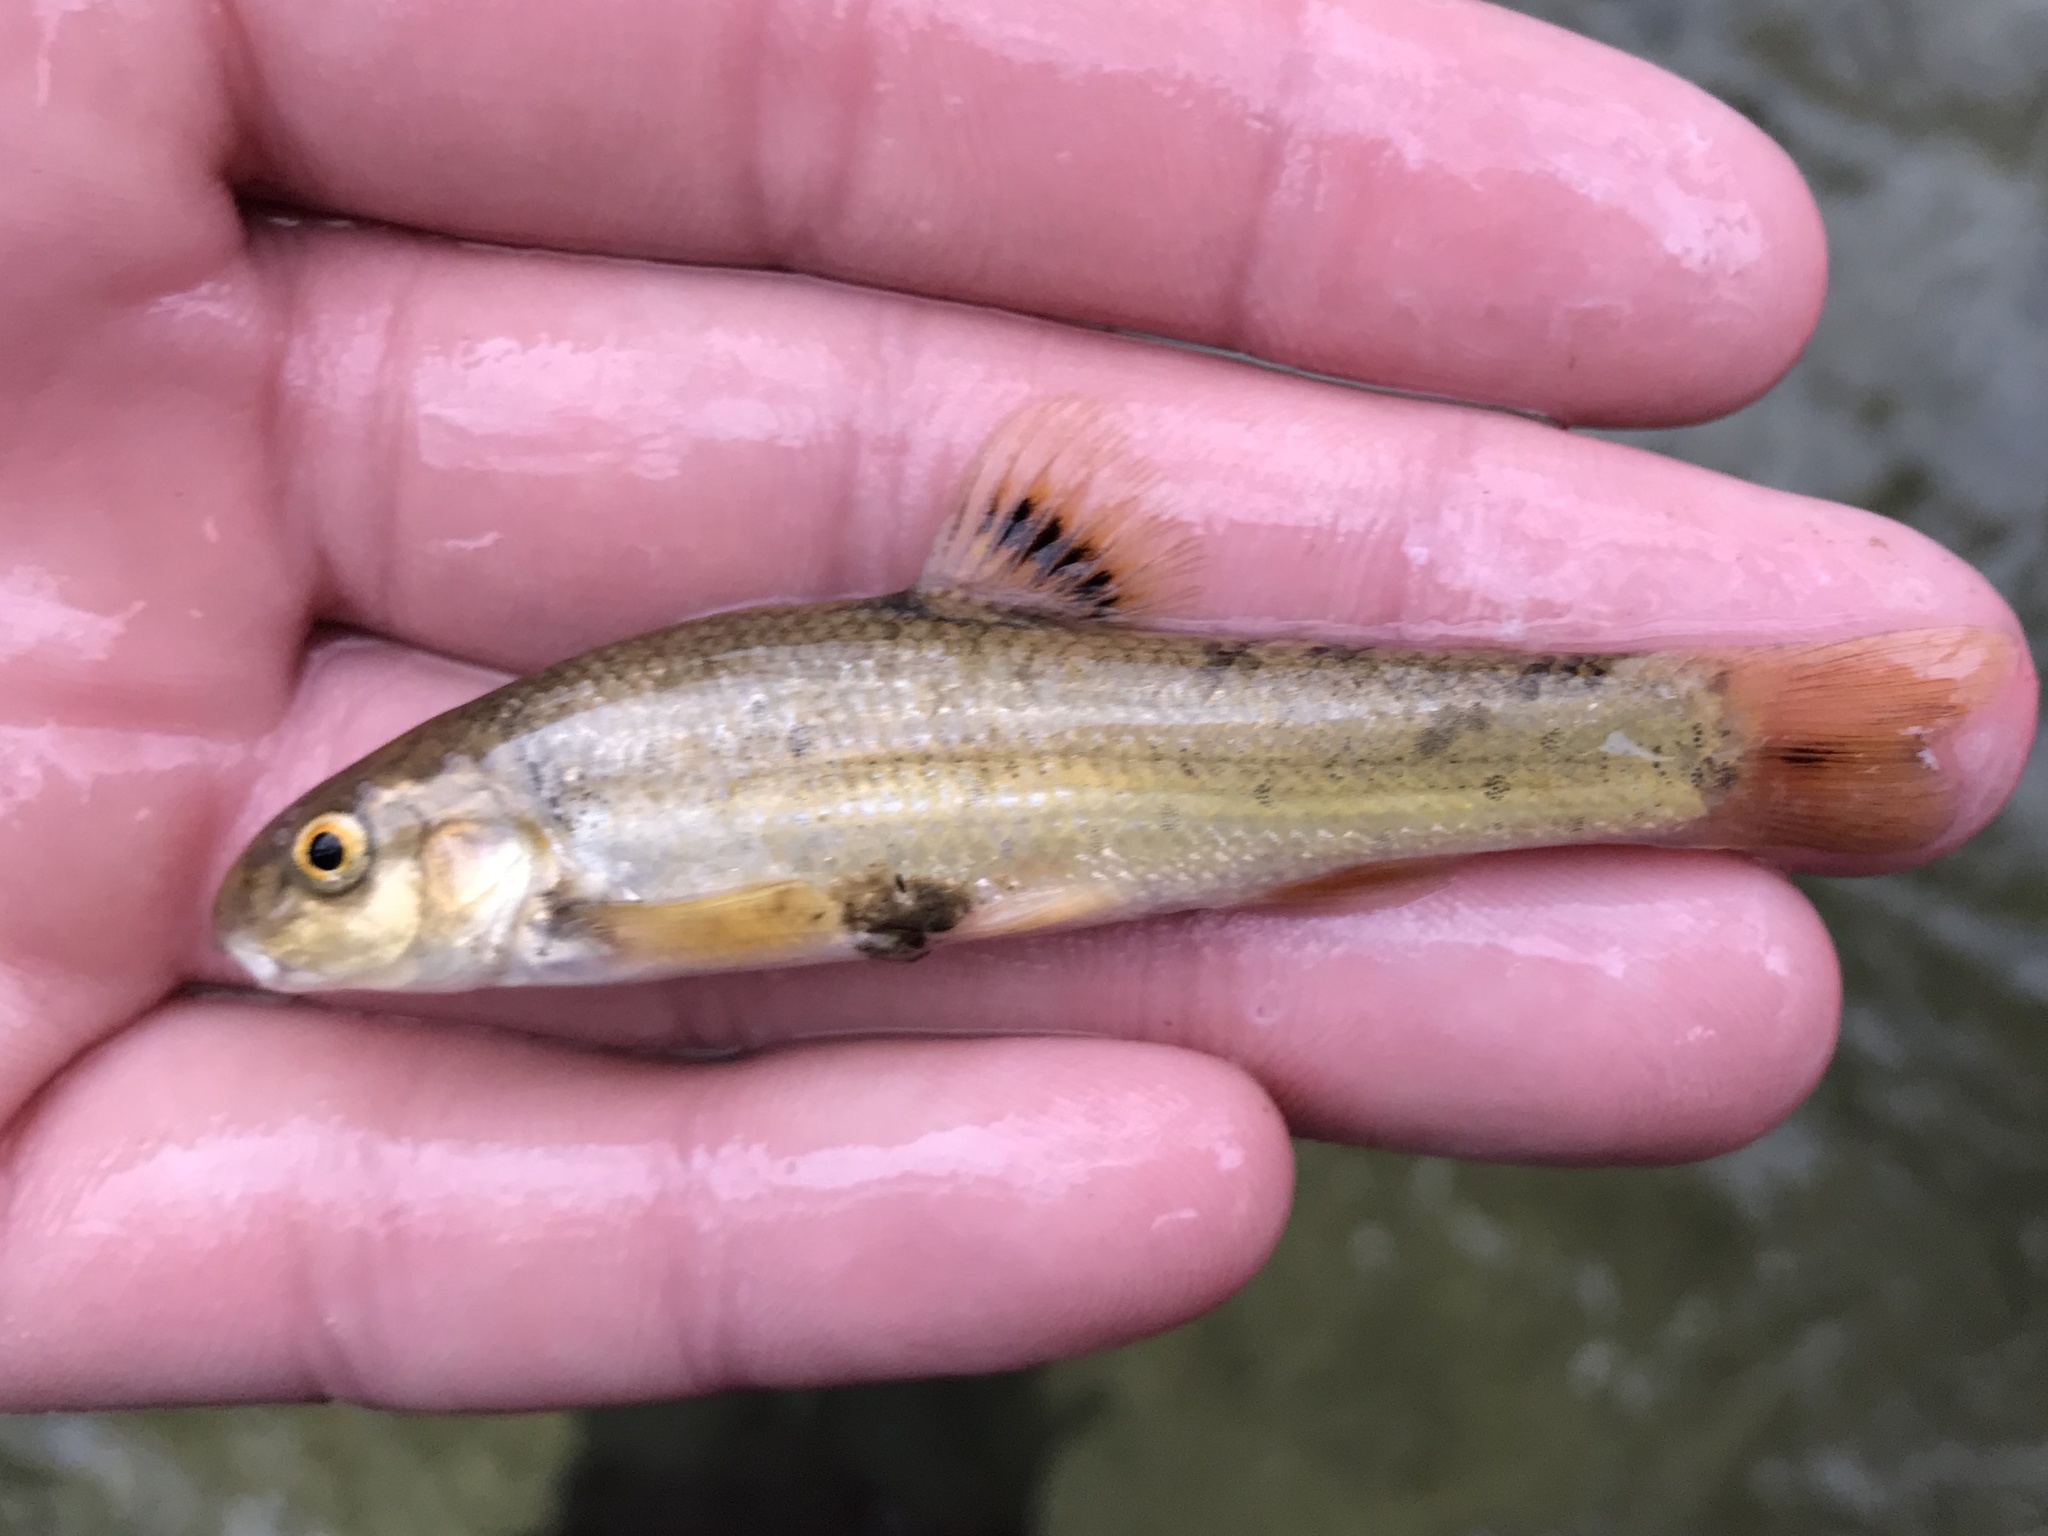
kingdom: Animalia
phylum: Chordata
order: Cypriniformes
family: Cyprinidae
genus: Campostoma
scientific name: Campostoma anomalum
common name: Central stoneroller
